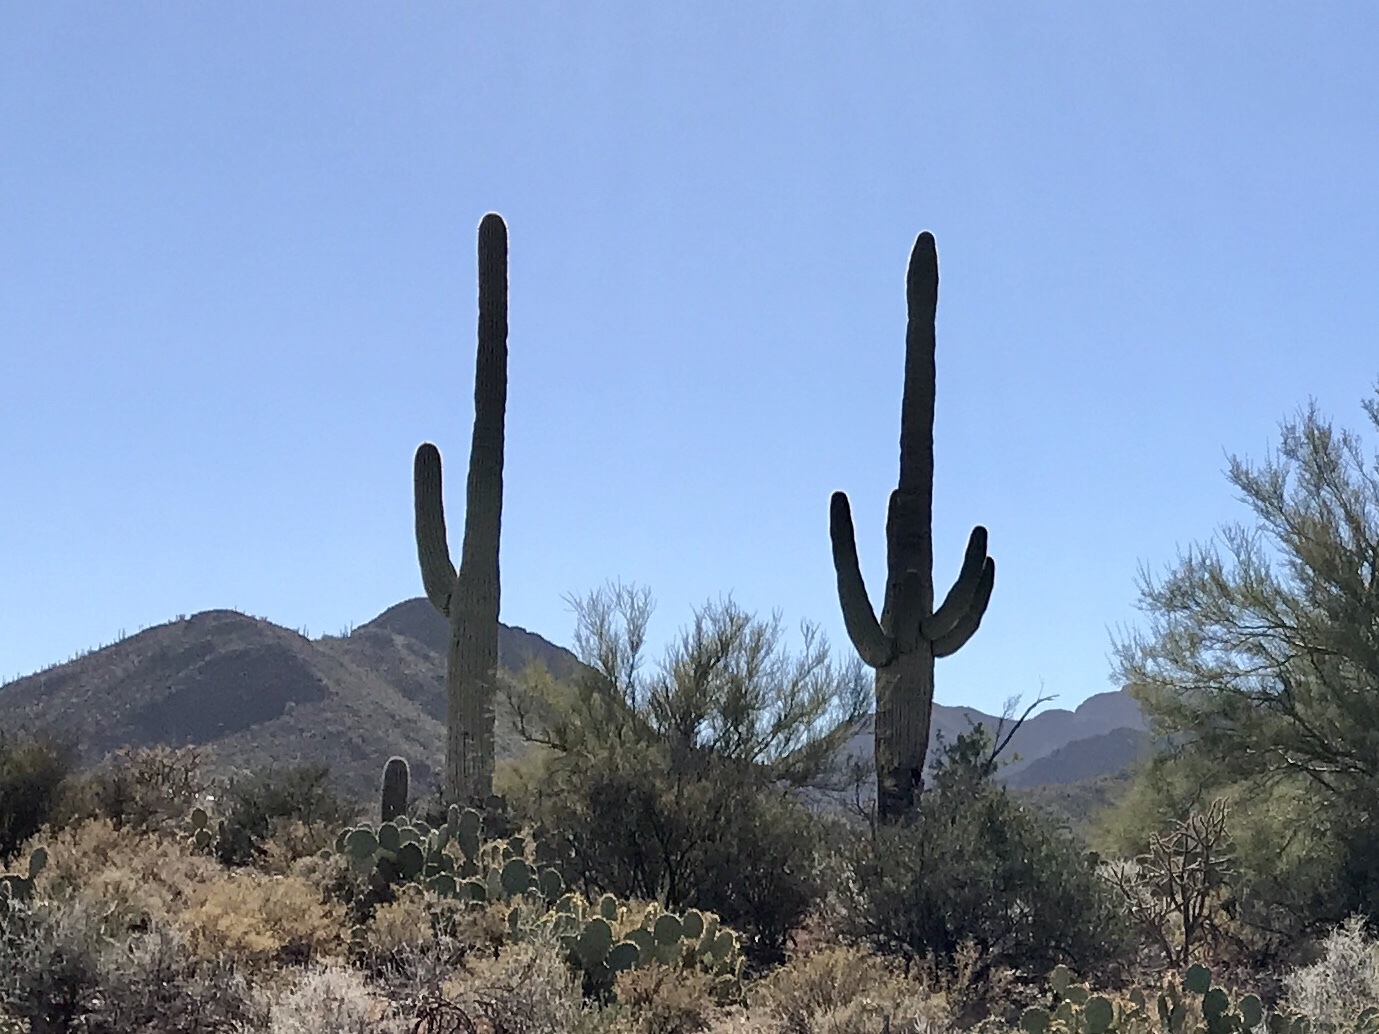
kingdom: Plantae
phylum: Tracheophyta
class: Magnoliopsida
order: Caryophyllales
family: Cactaceae
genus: Carnegiea
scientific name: Carnegiea gigantea
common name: Saguaro
